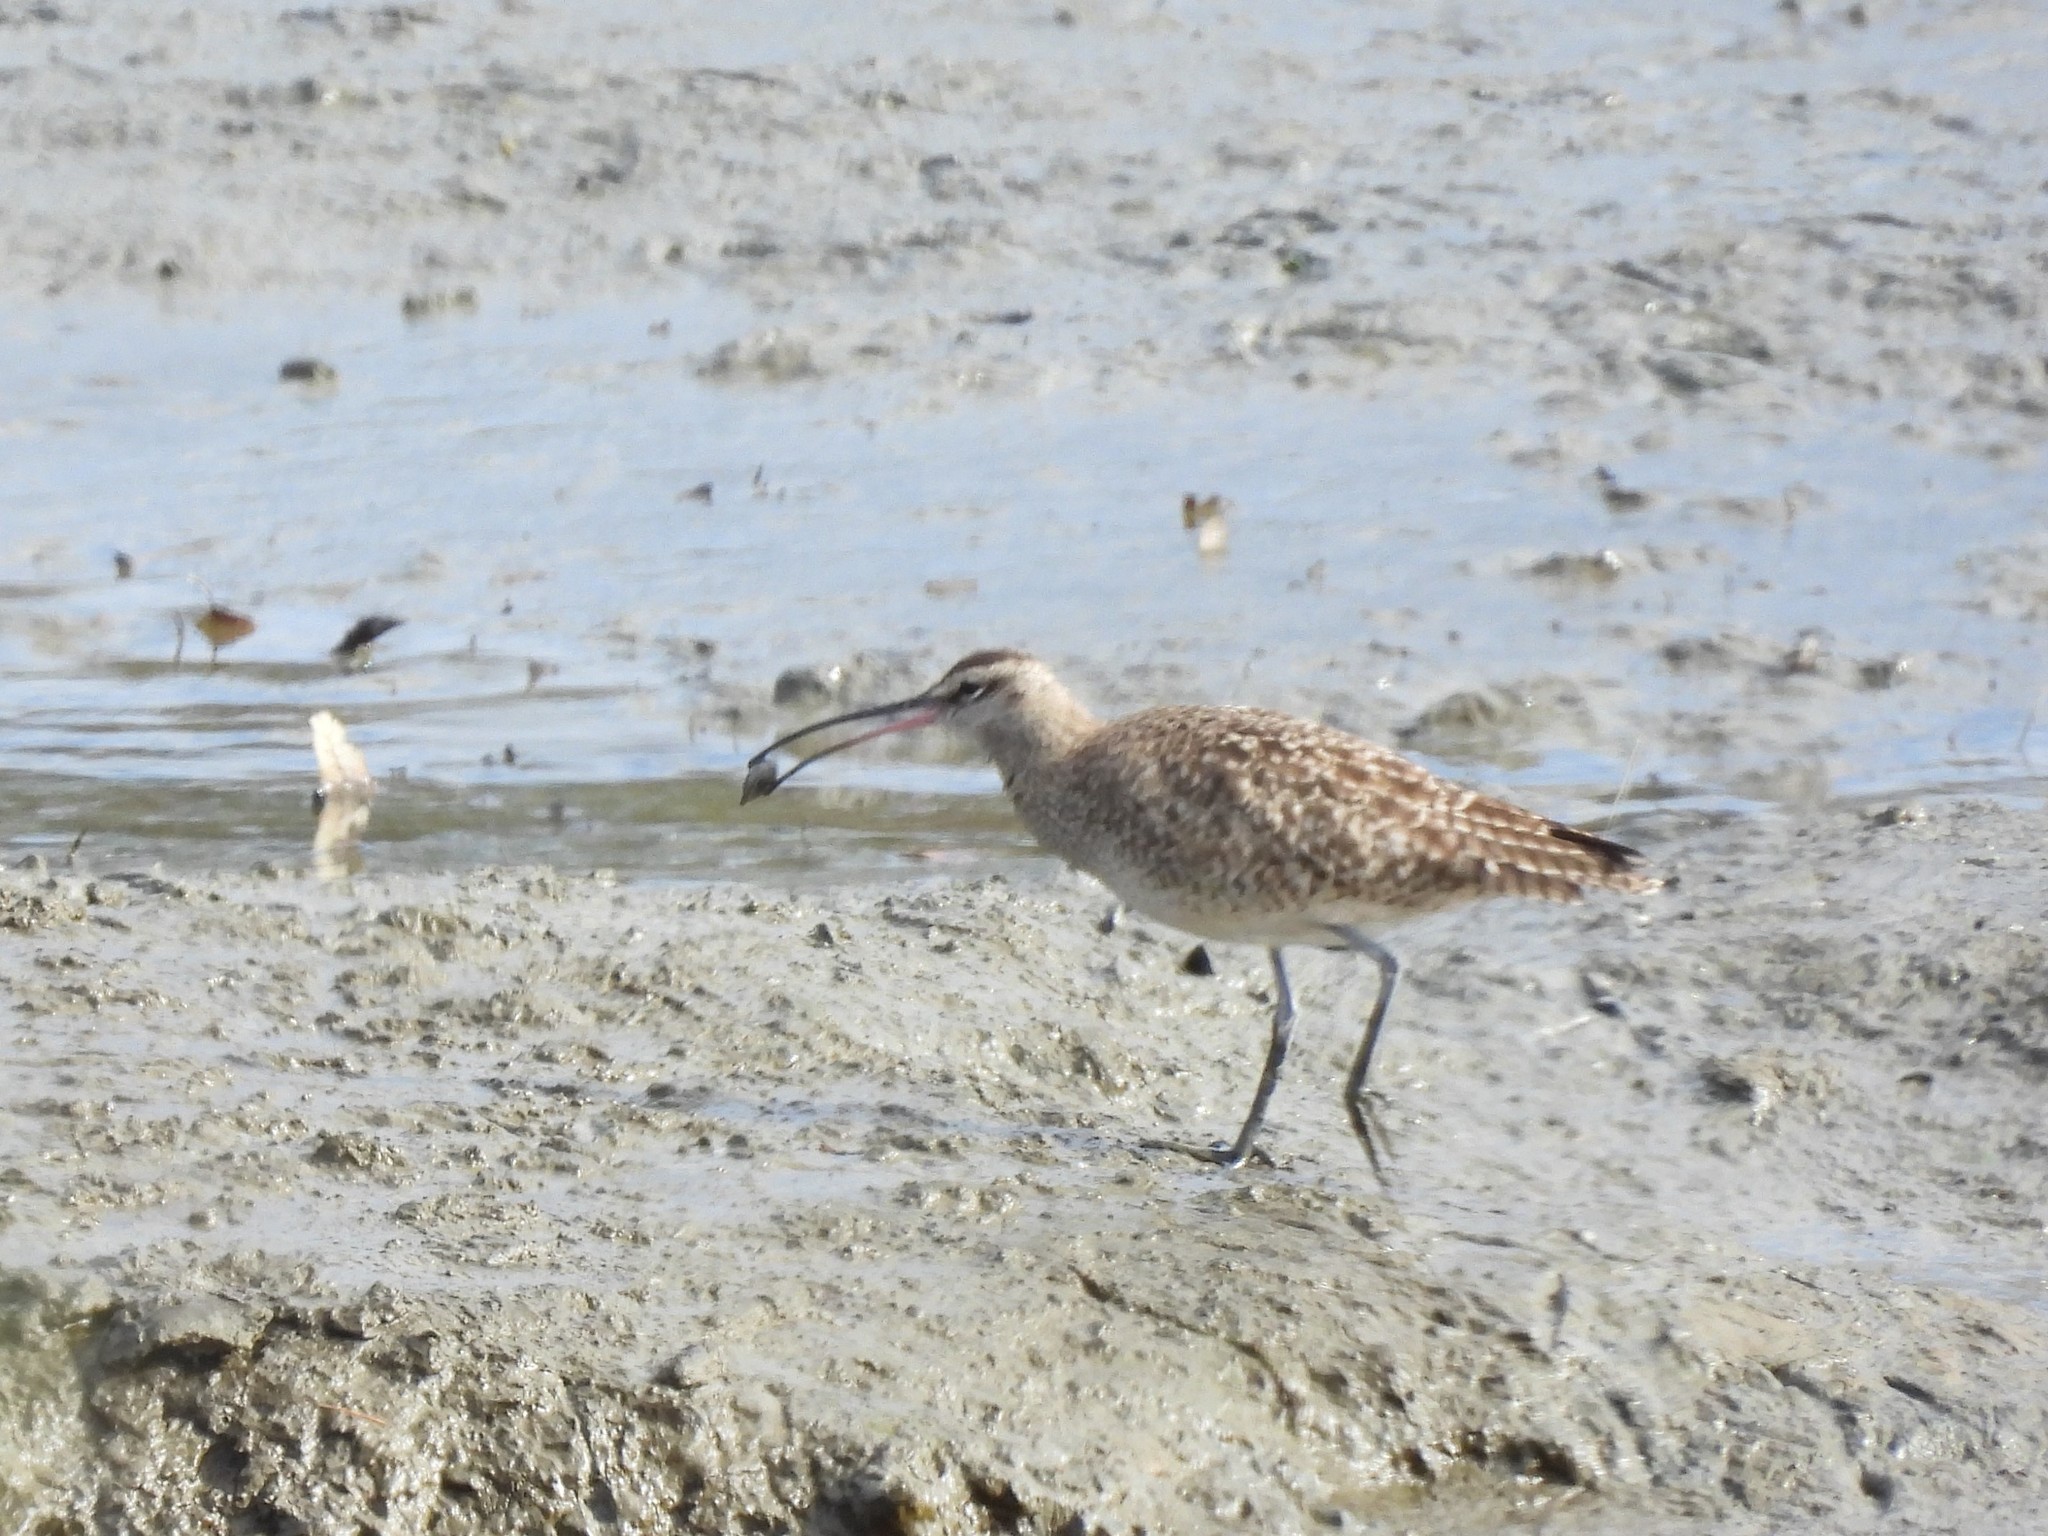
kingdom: Animalia
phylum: Chordata
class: Aves
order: Charadriiformes
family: Scolopacidae
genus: Numenius
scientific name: Numenius phaeopus
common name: Whimbrel
